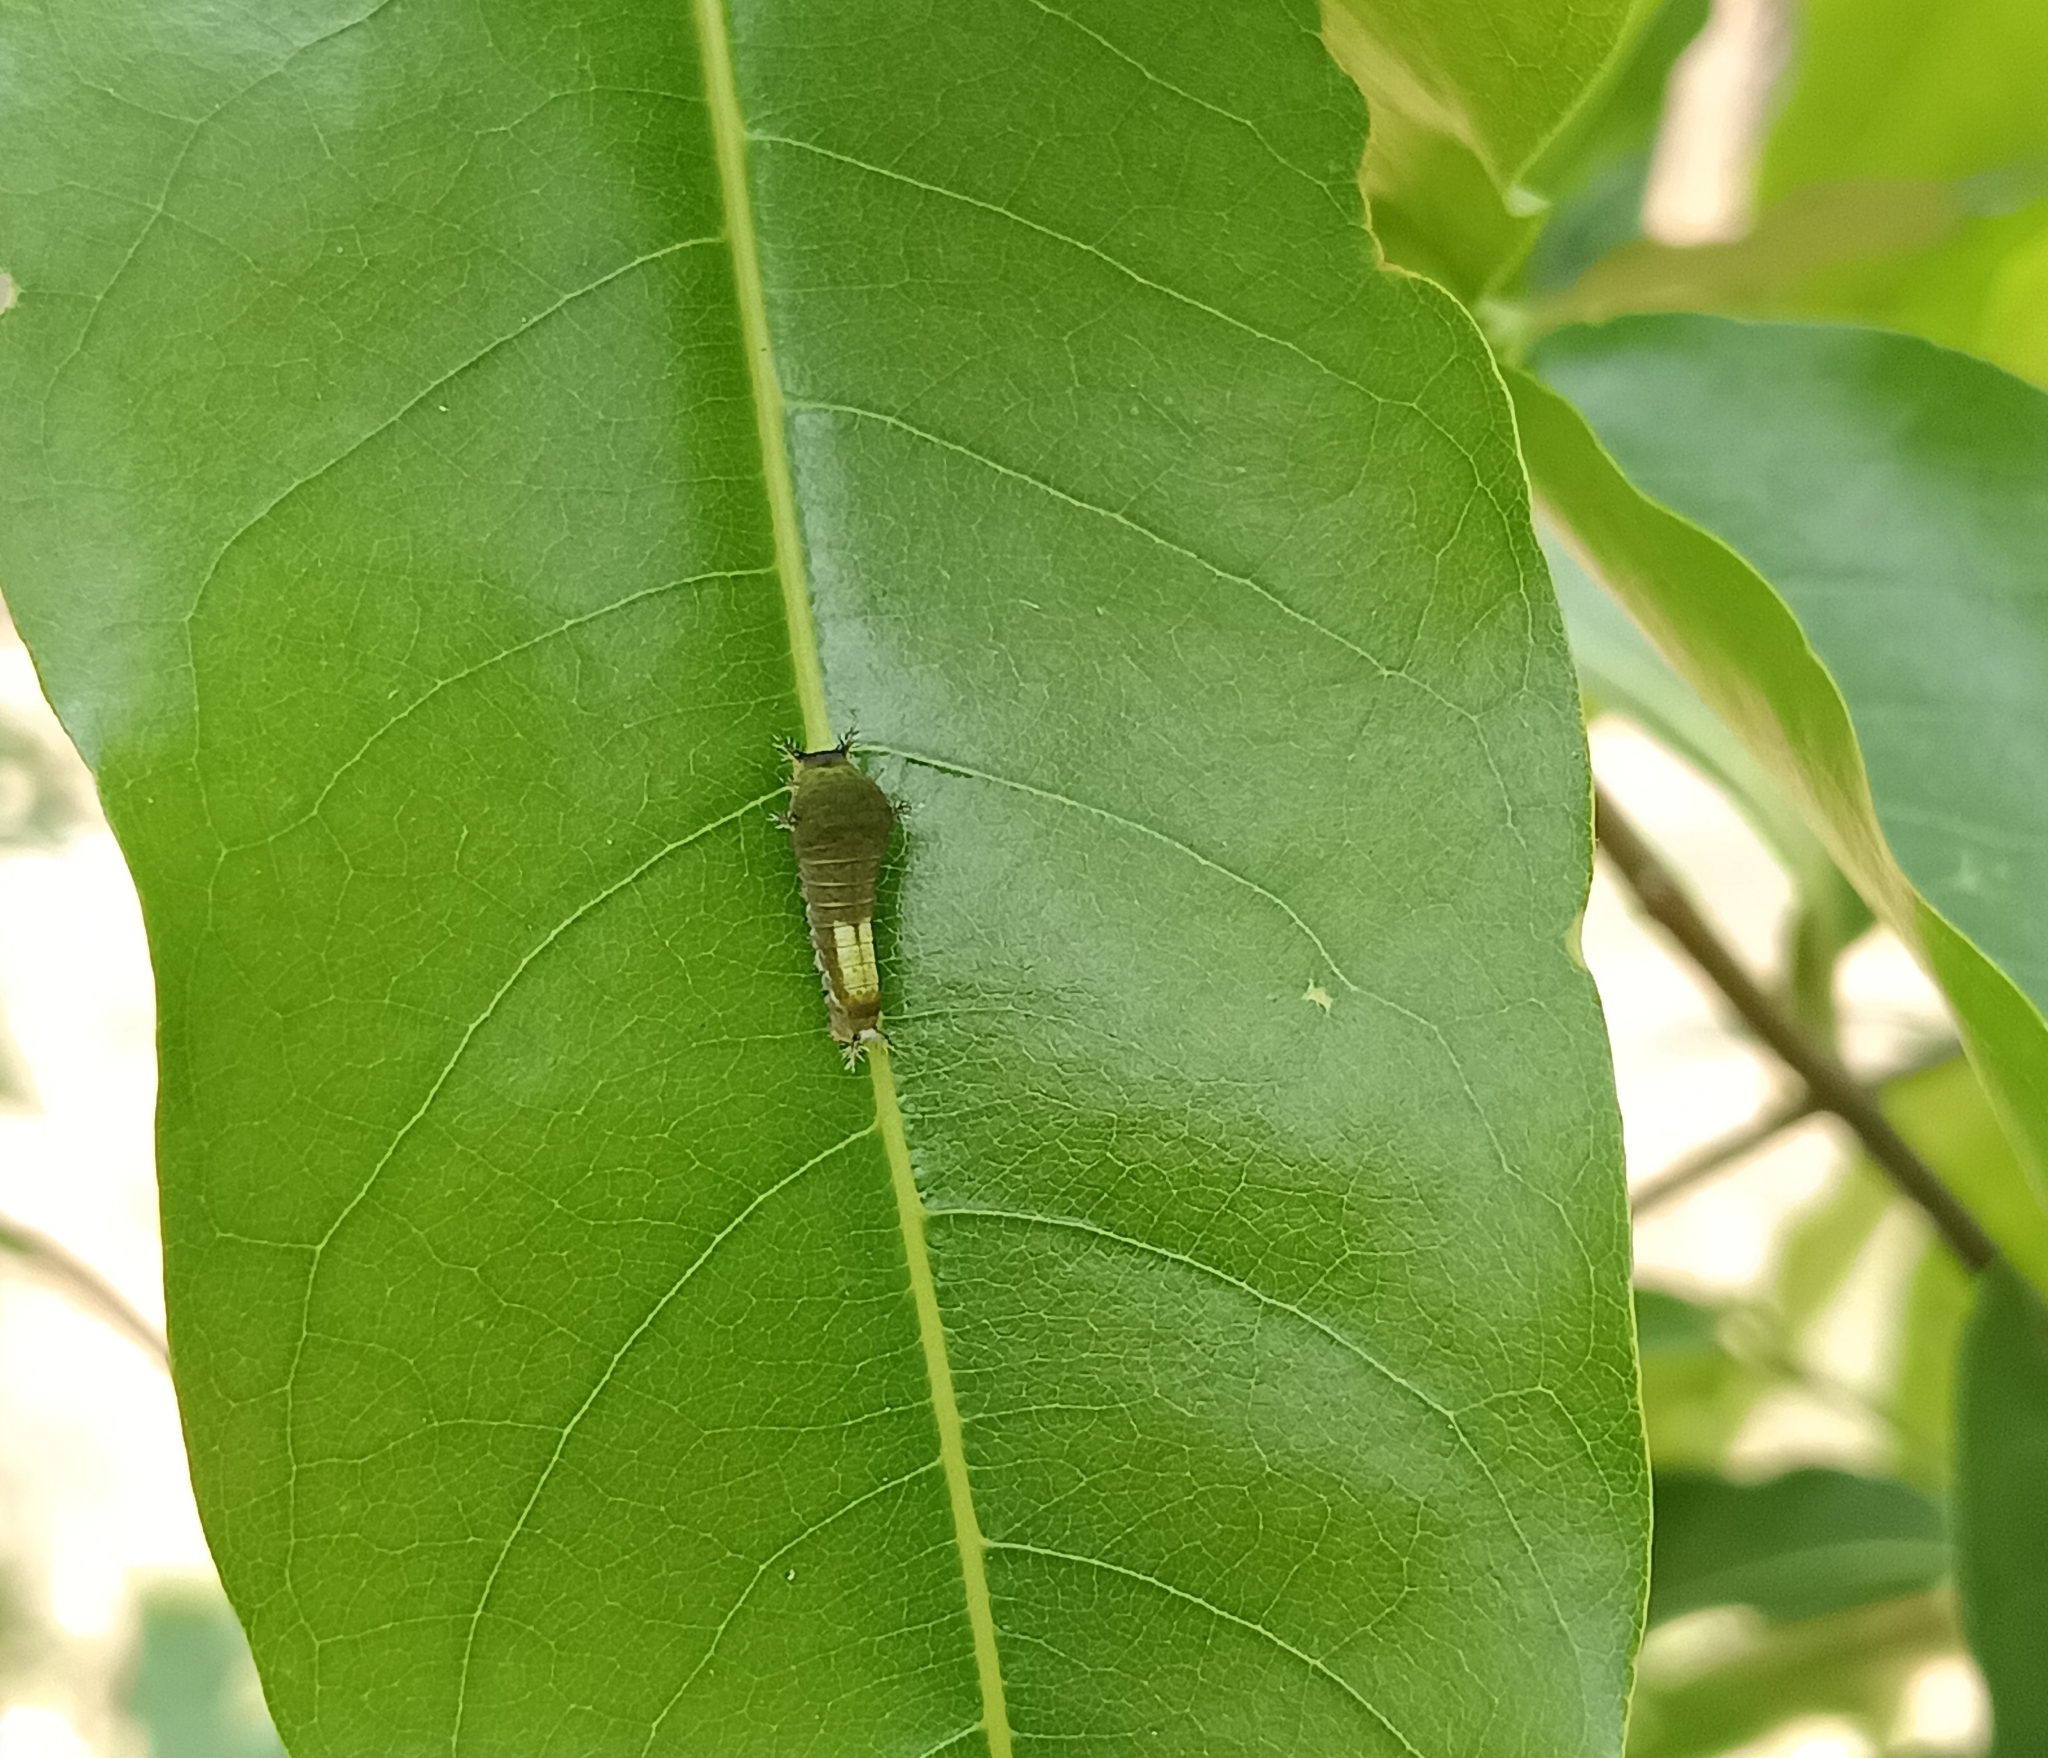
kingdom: Animalia
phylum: Arthropoda
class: Insecta
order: Lepidoptera
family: Papilionidae
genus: Graphium
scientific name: Graphium agamemnon
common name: Tailed jay
